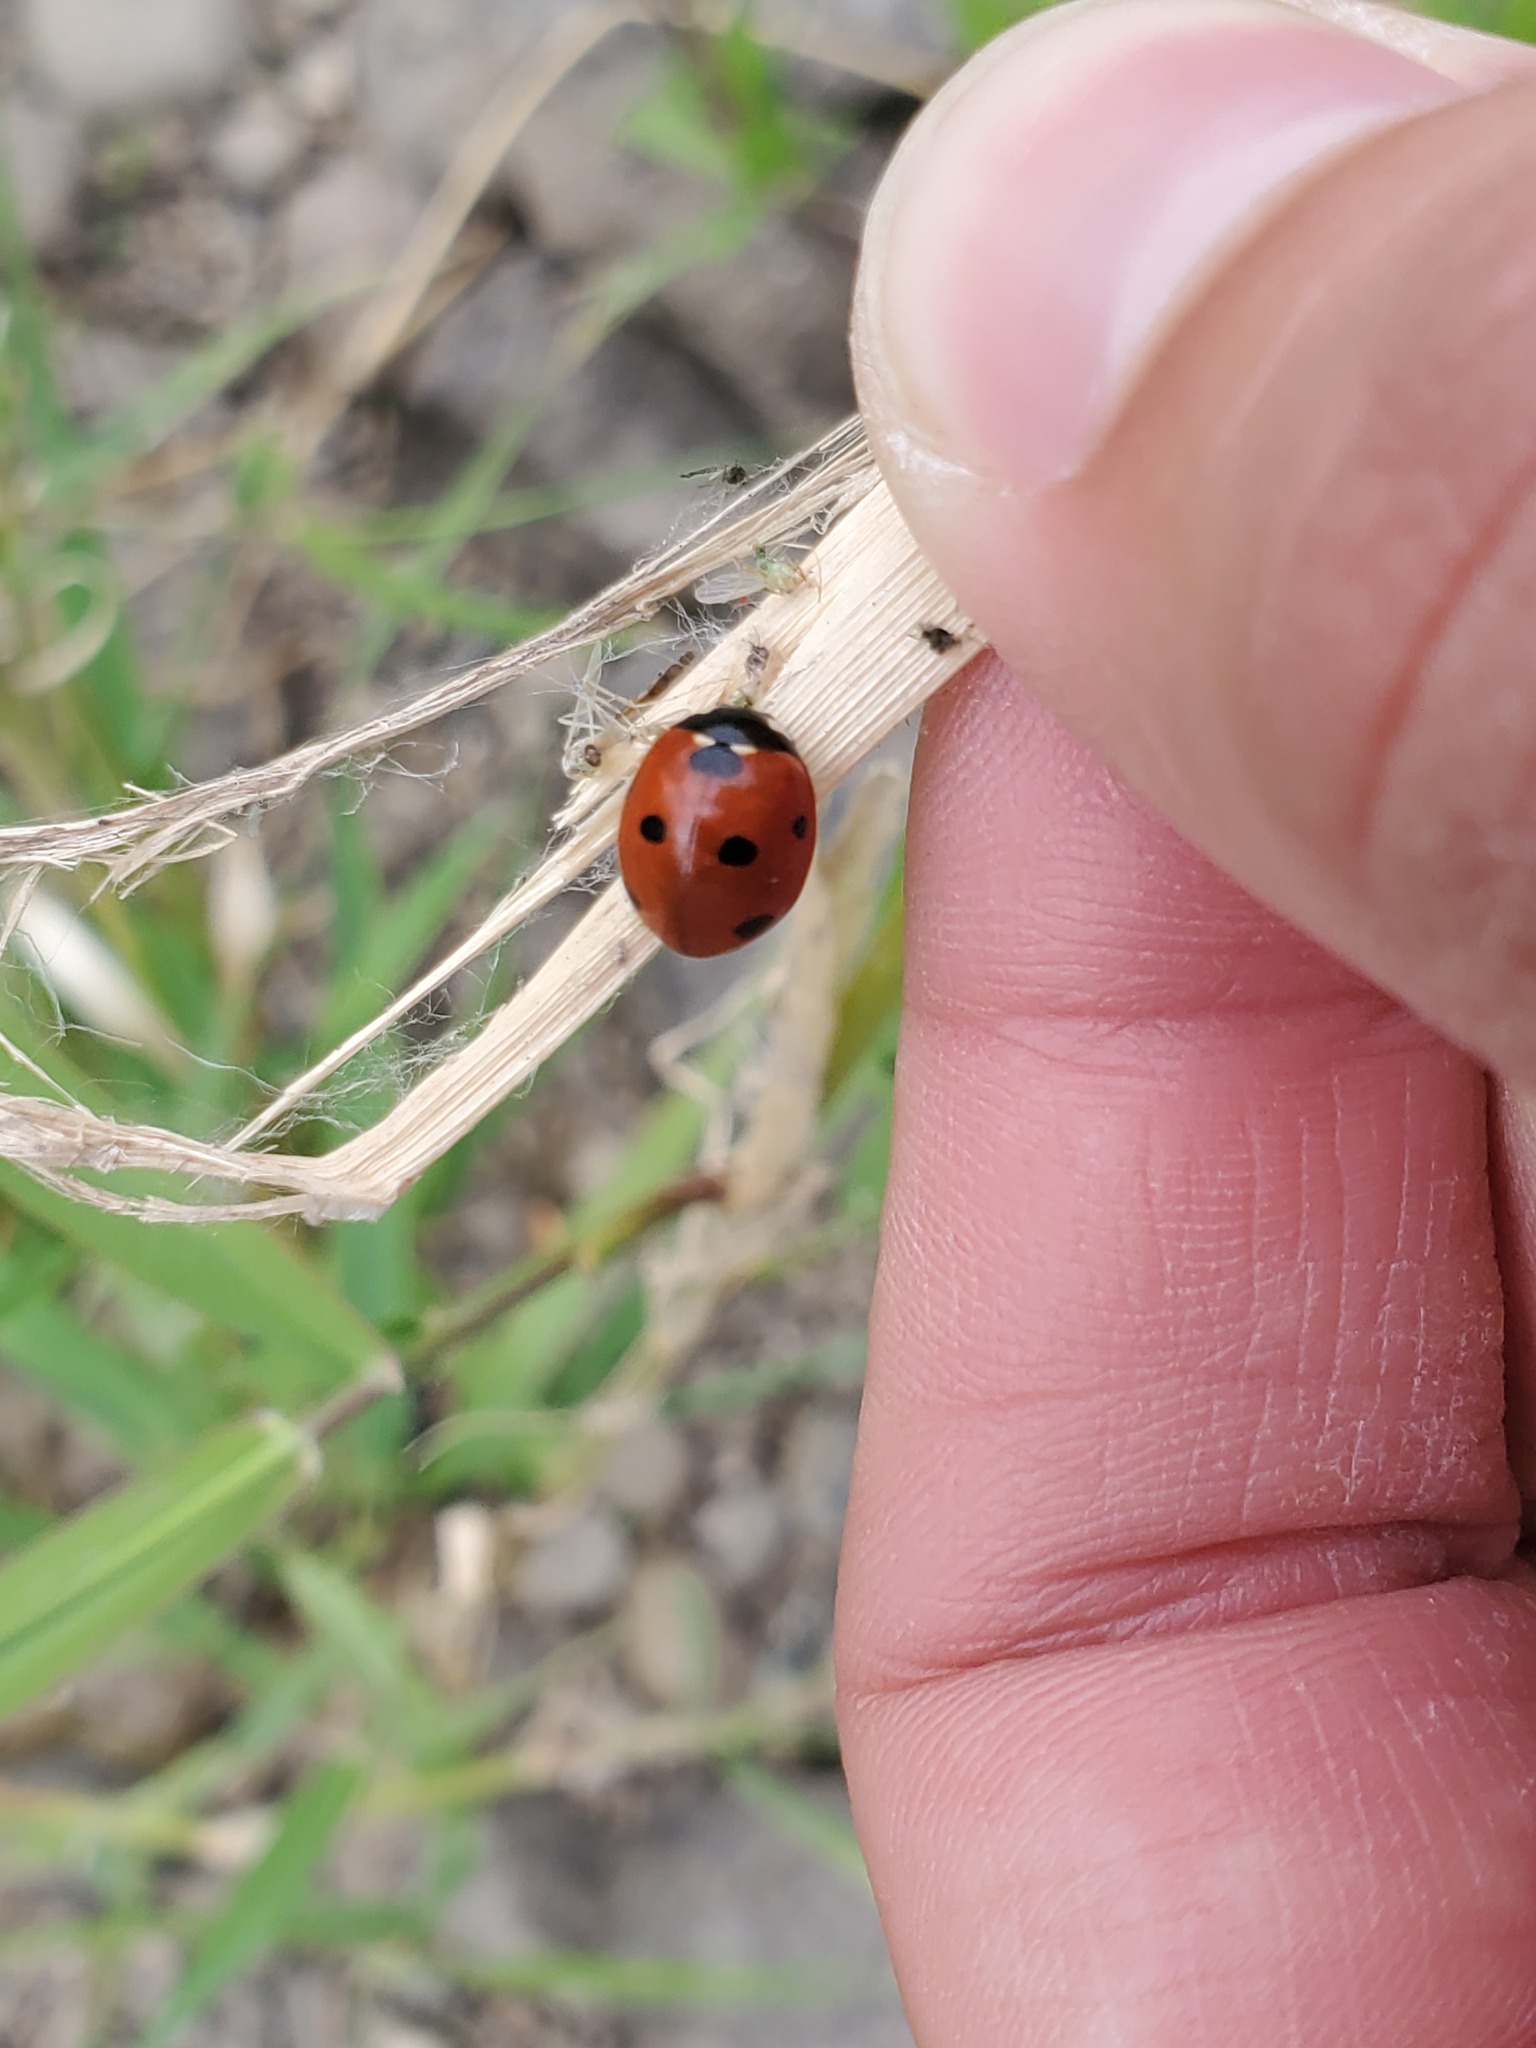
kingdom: Animalia
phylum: Arthropoda
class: Insecta
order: Coleoptera
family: Coccinellidae
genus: Coccinella
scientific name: Coccinella septempunctata
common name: Sevenspotted lady beetle
